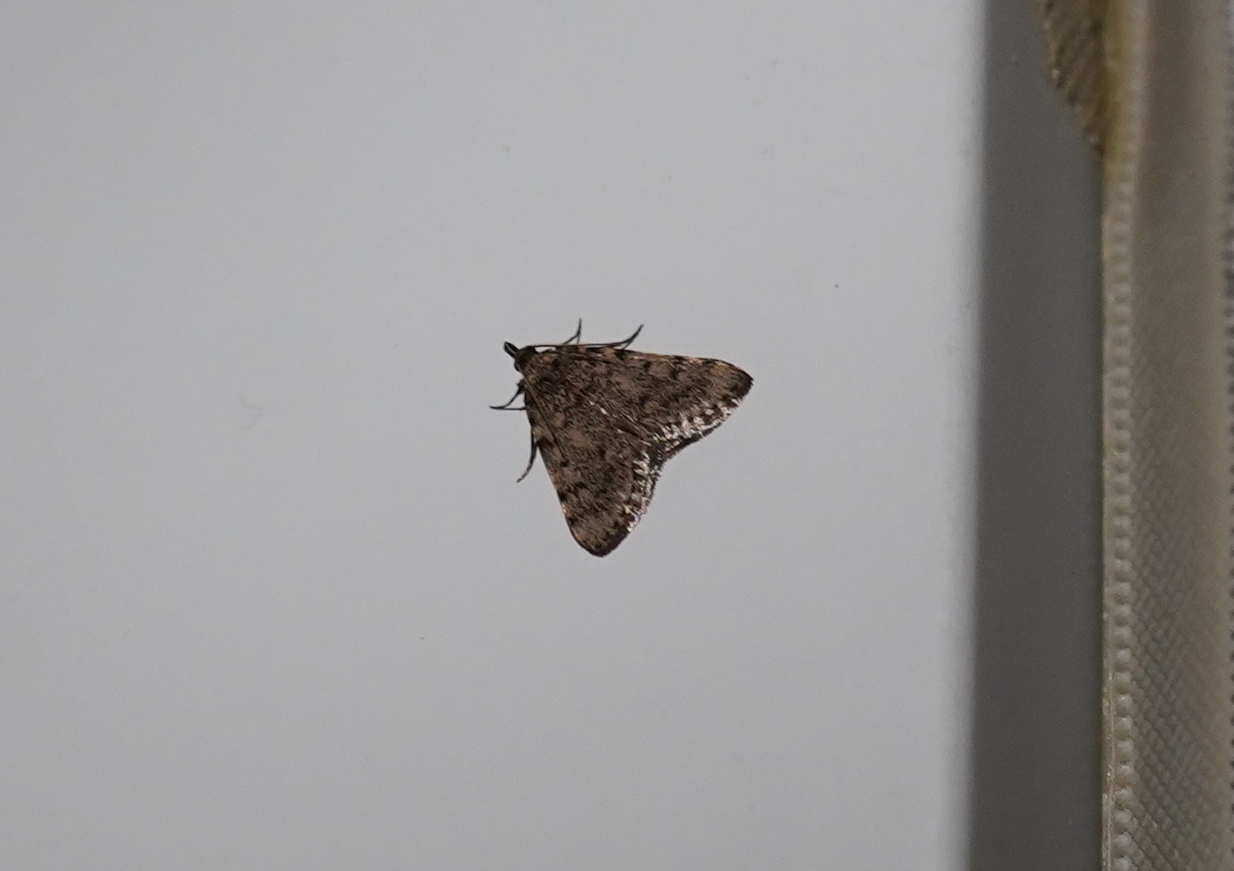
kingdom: Animalia
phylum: Arthropoda
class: Insecta
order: Lepidoptera
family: Pyralidae
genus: Aglossa
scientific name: Aglossa pinguinalis
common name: Large tabby
